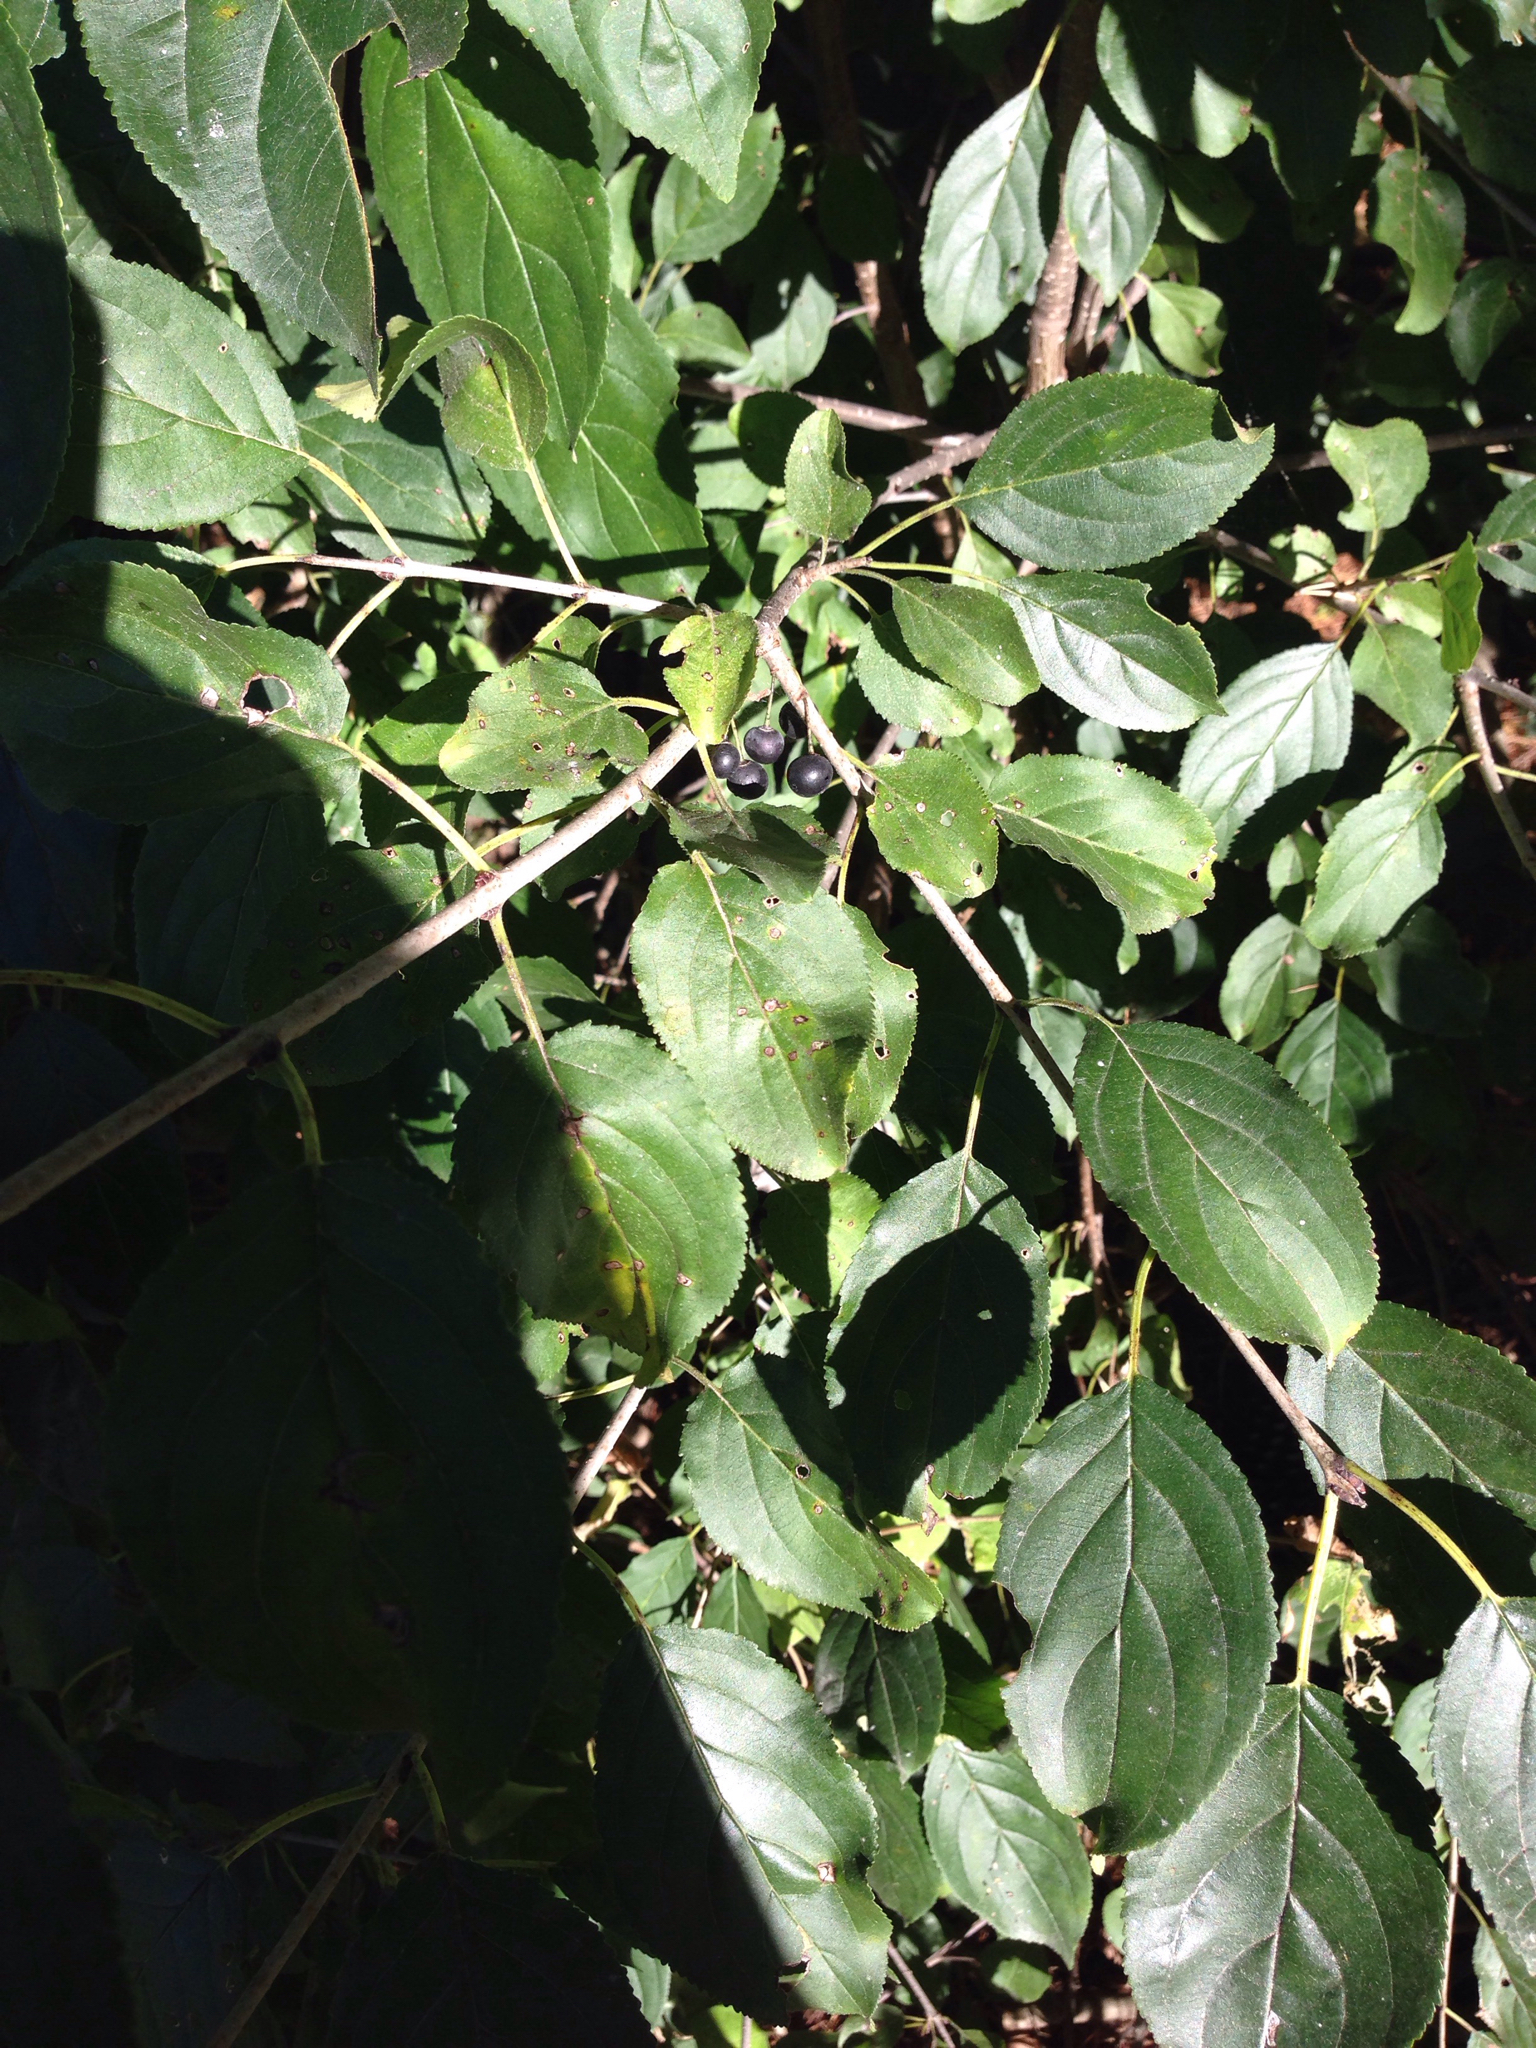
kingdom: Plantae
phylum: Tracheophyta
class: Magnoliopsida
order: Rosales
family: Rhamnaceae
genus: Rhamnus
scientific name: Rhamnus cathartica
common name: Common buckthorn
